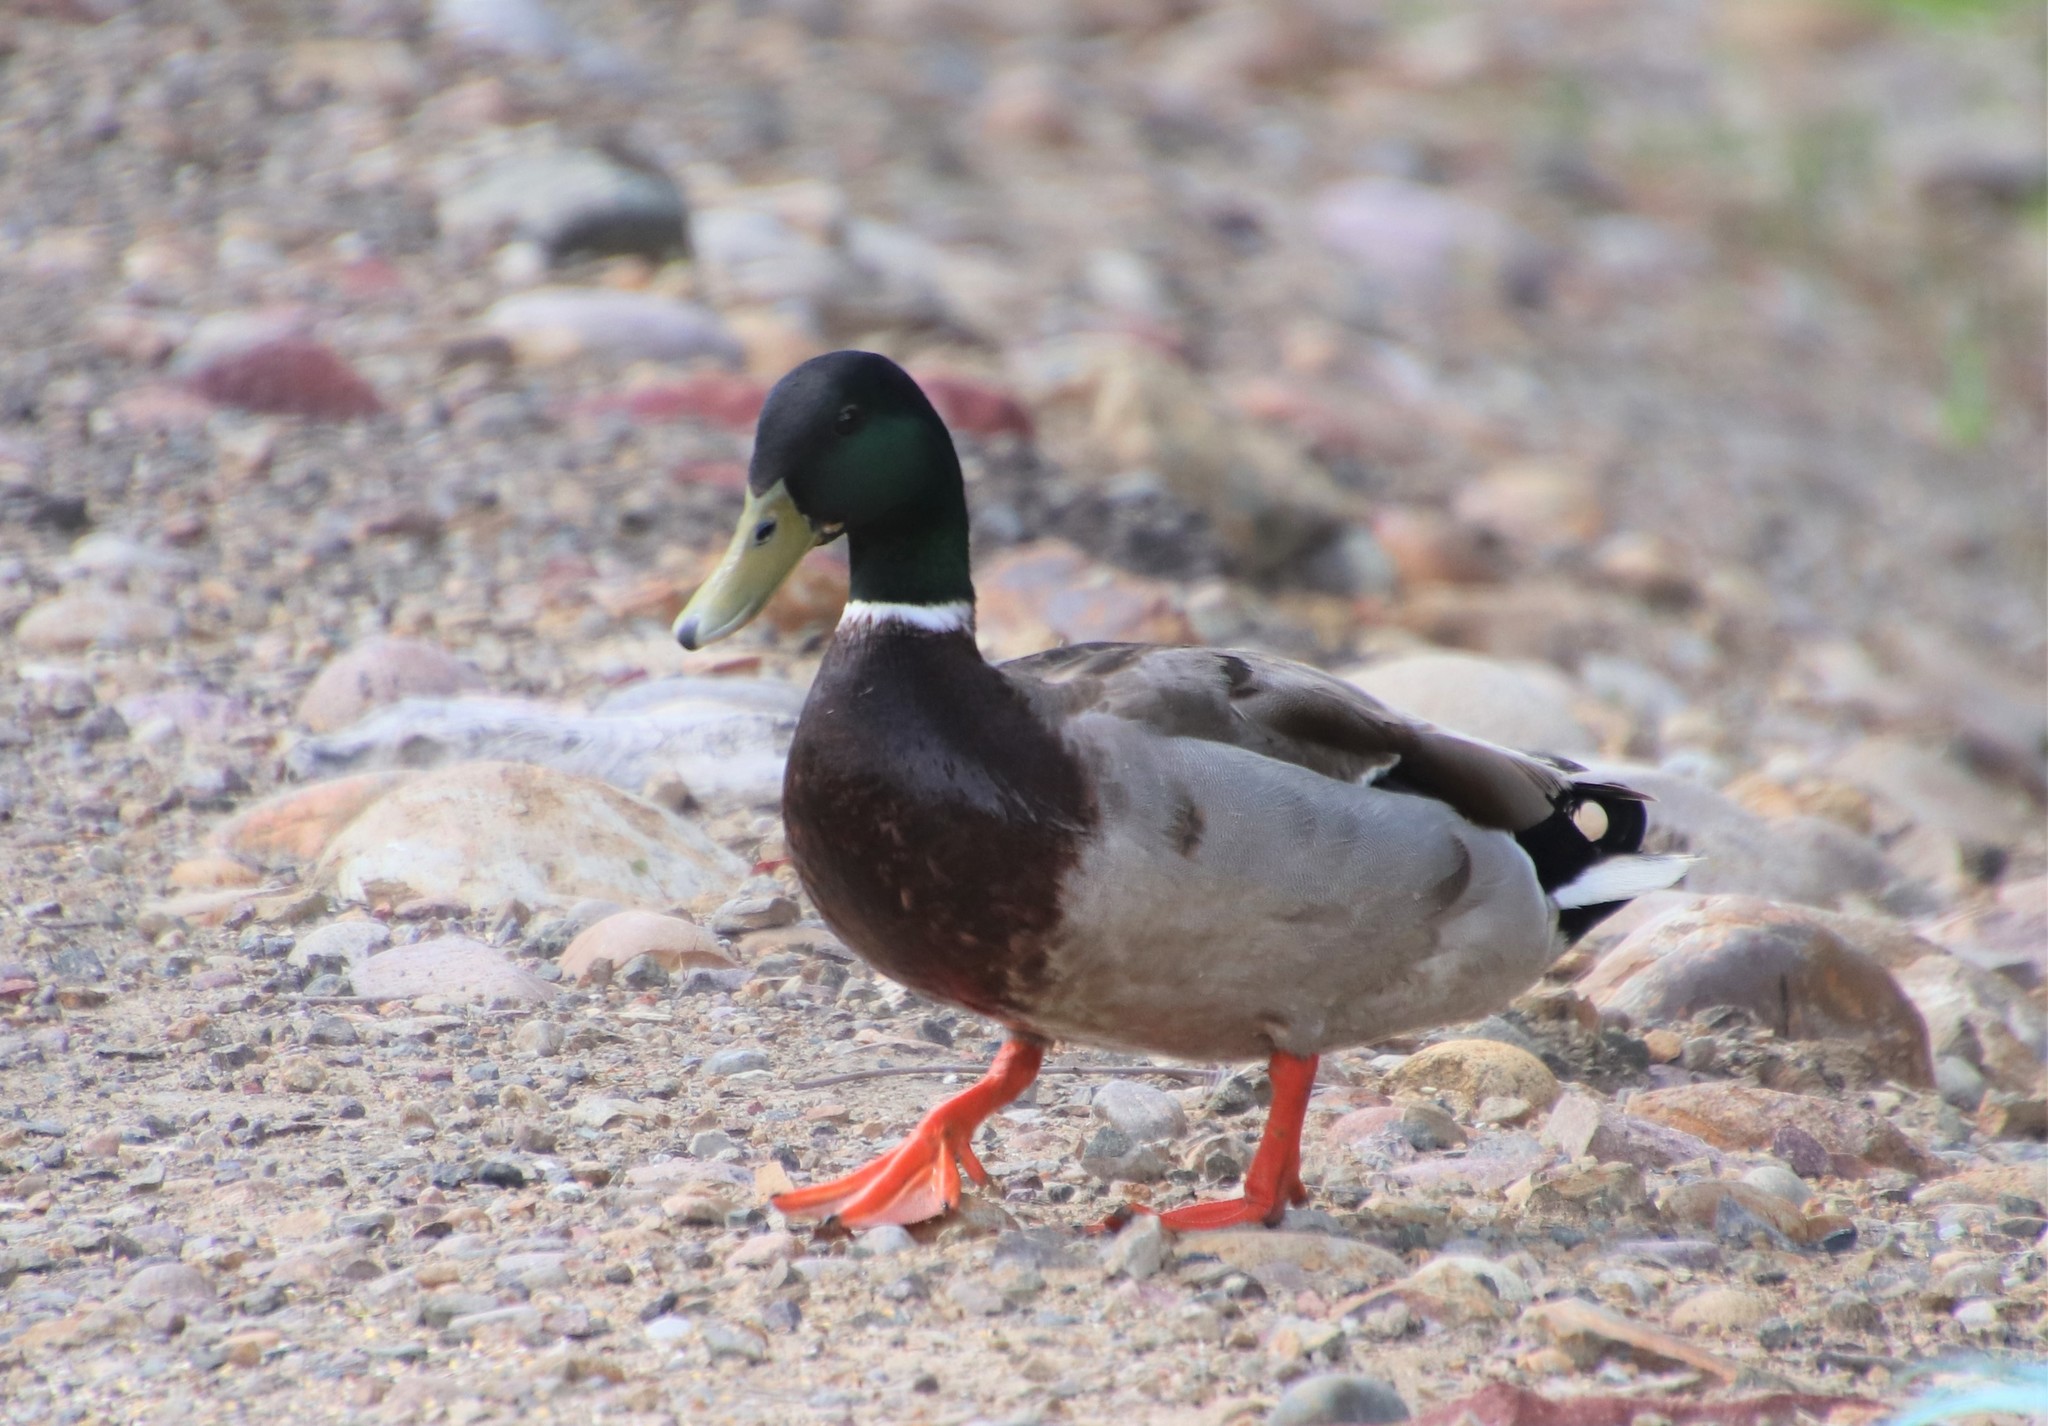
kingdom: Animalia
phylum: Chordata
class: Aves
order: Anseriformes
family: Anatidae
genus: Anas
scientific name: Anas platyrhynchos
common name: Mallard
